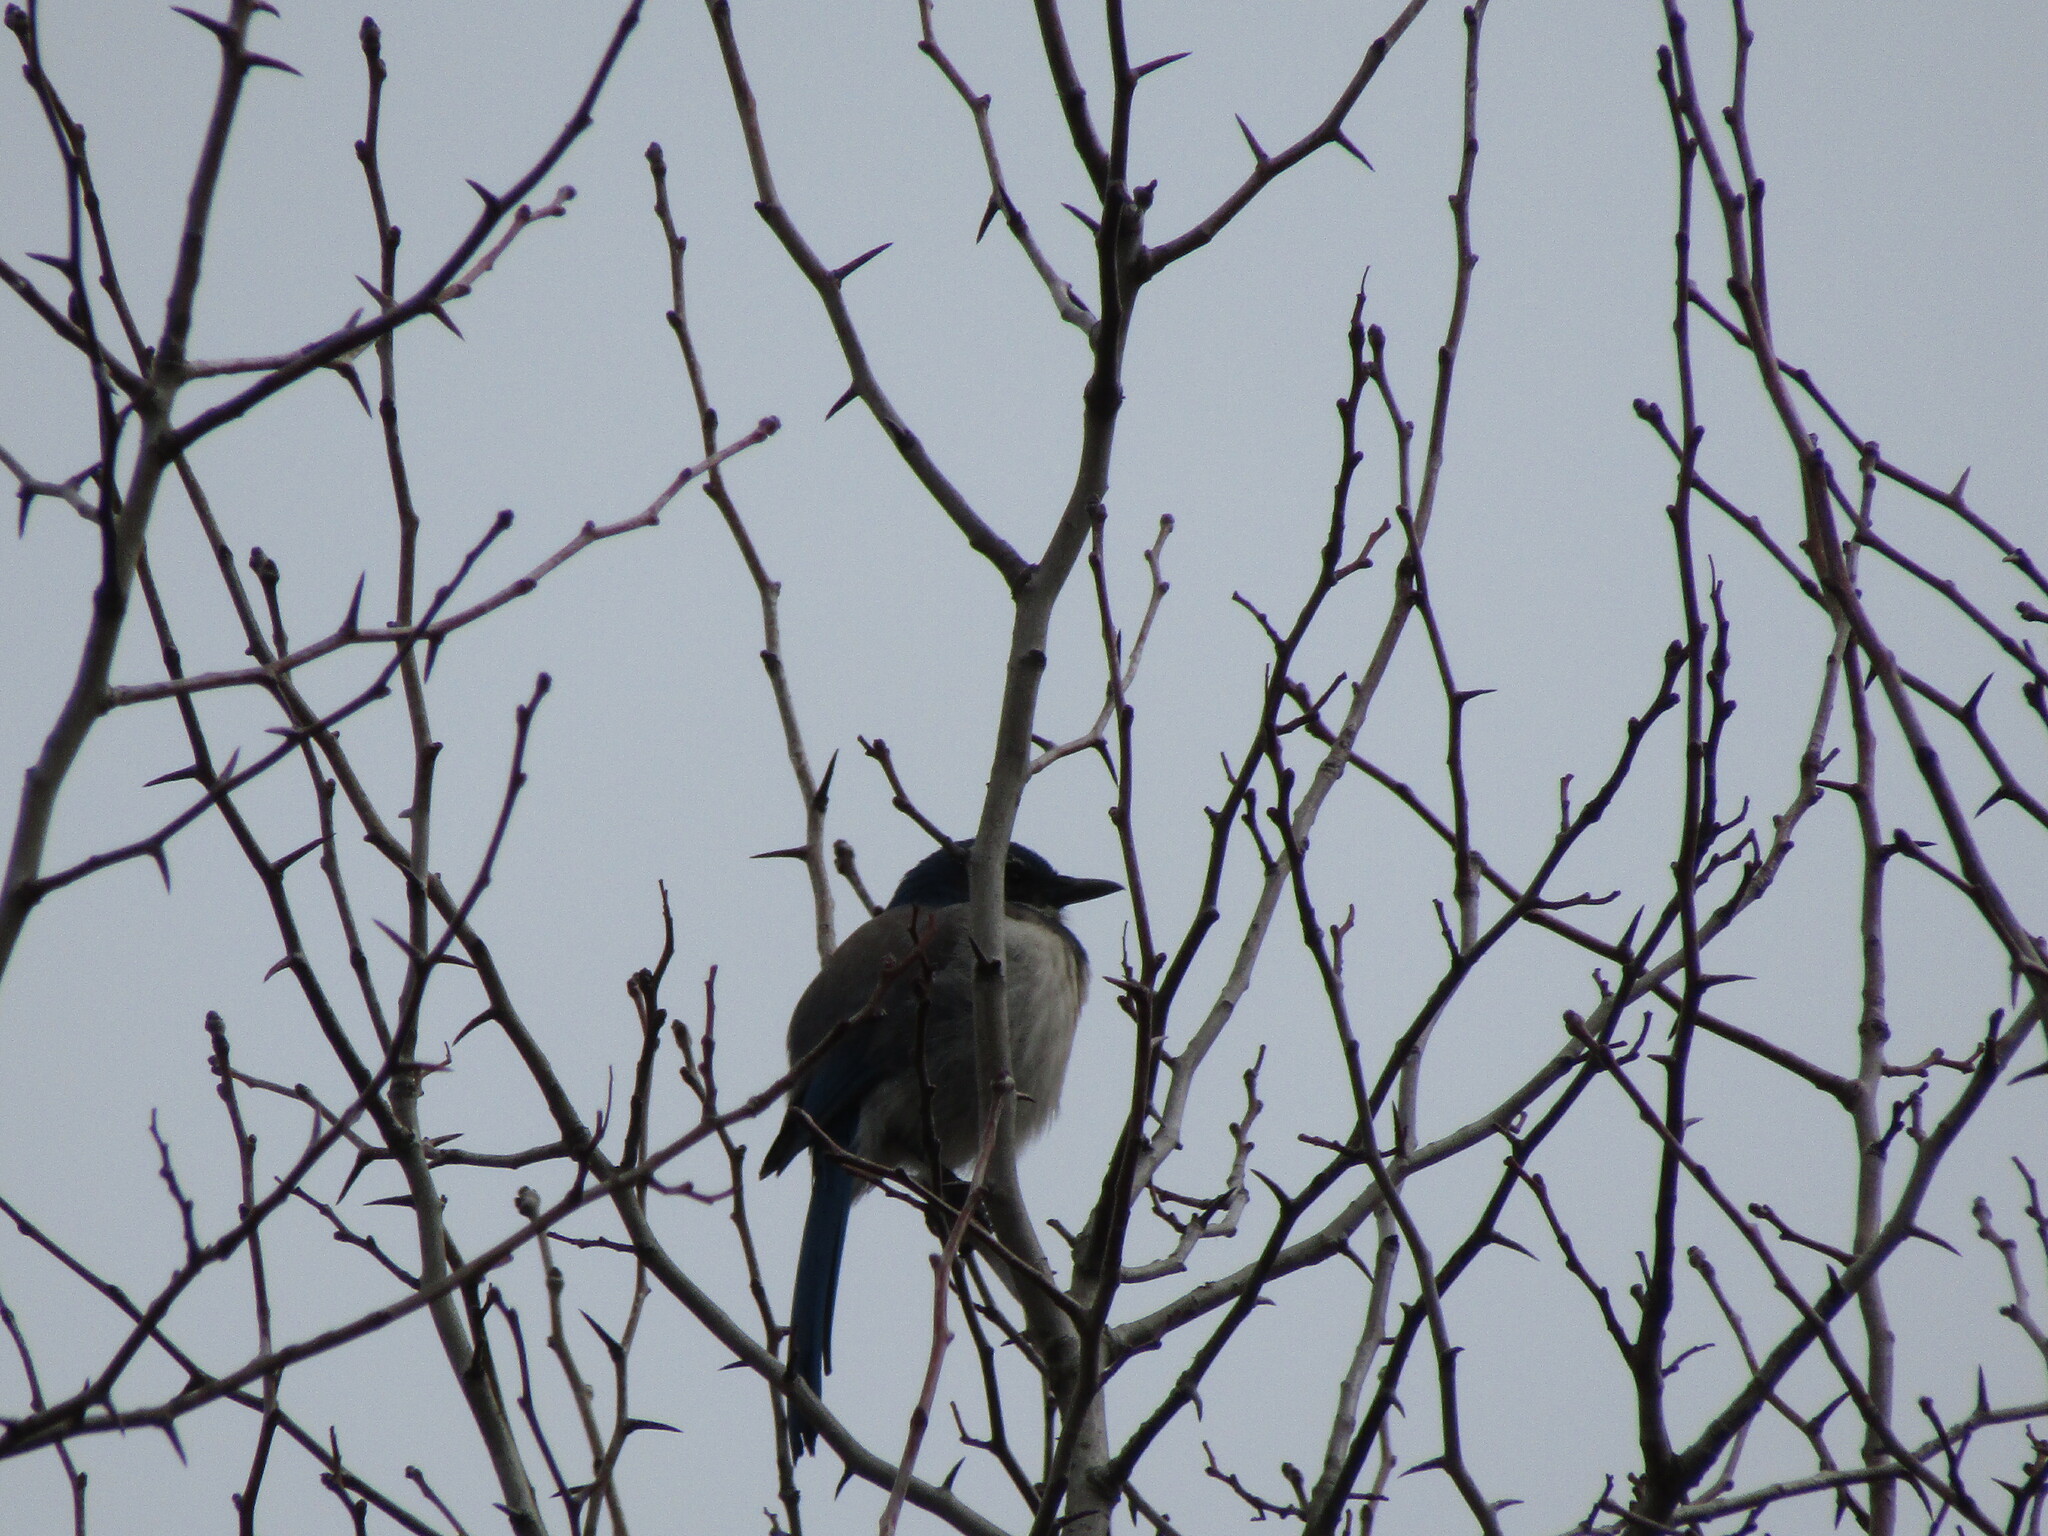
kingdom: Animalia
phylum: Chordata
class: Aves
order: Passeriformes
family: Corvidae
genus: Aphelocoma
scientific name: Aphelocoma californica
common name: California scrub-jay
